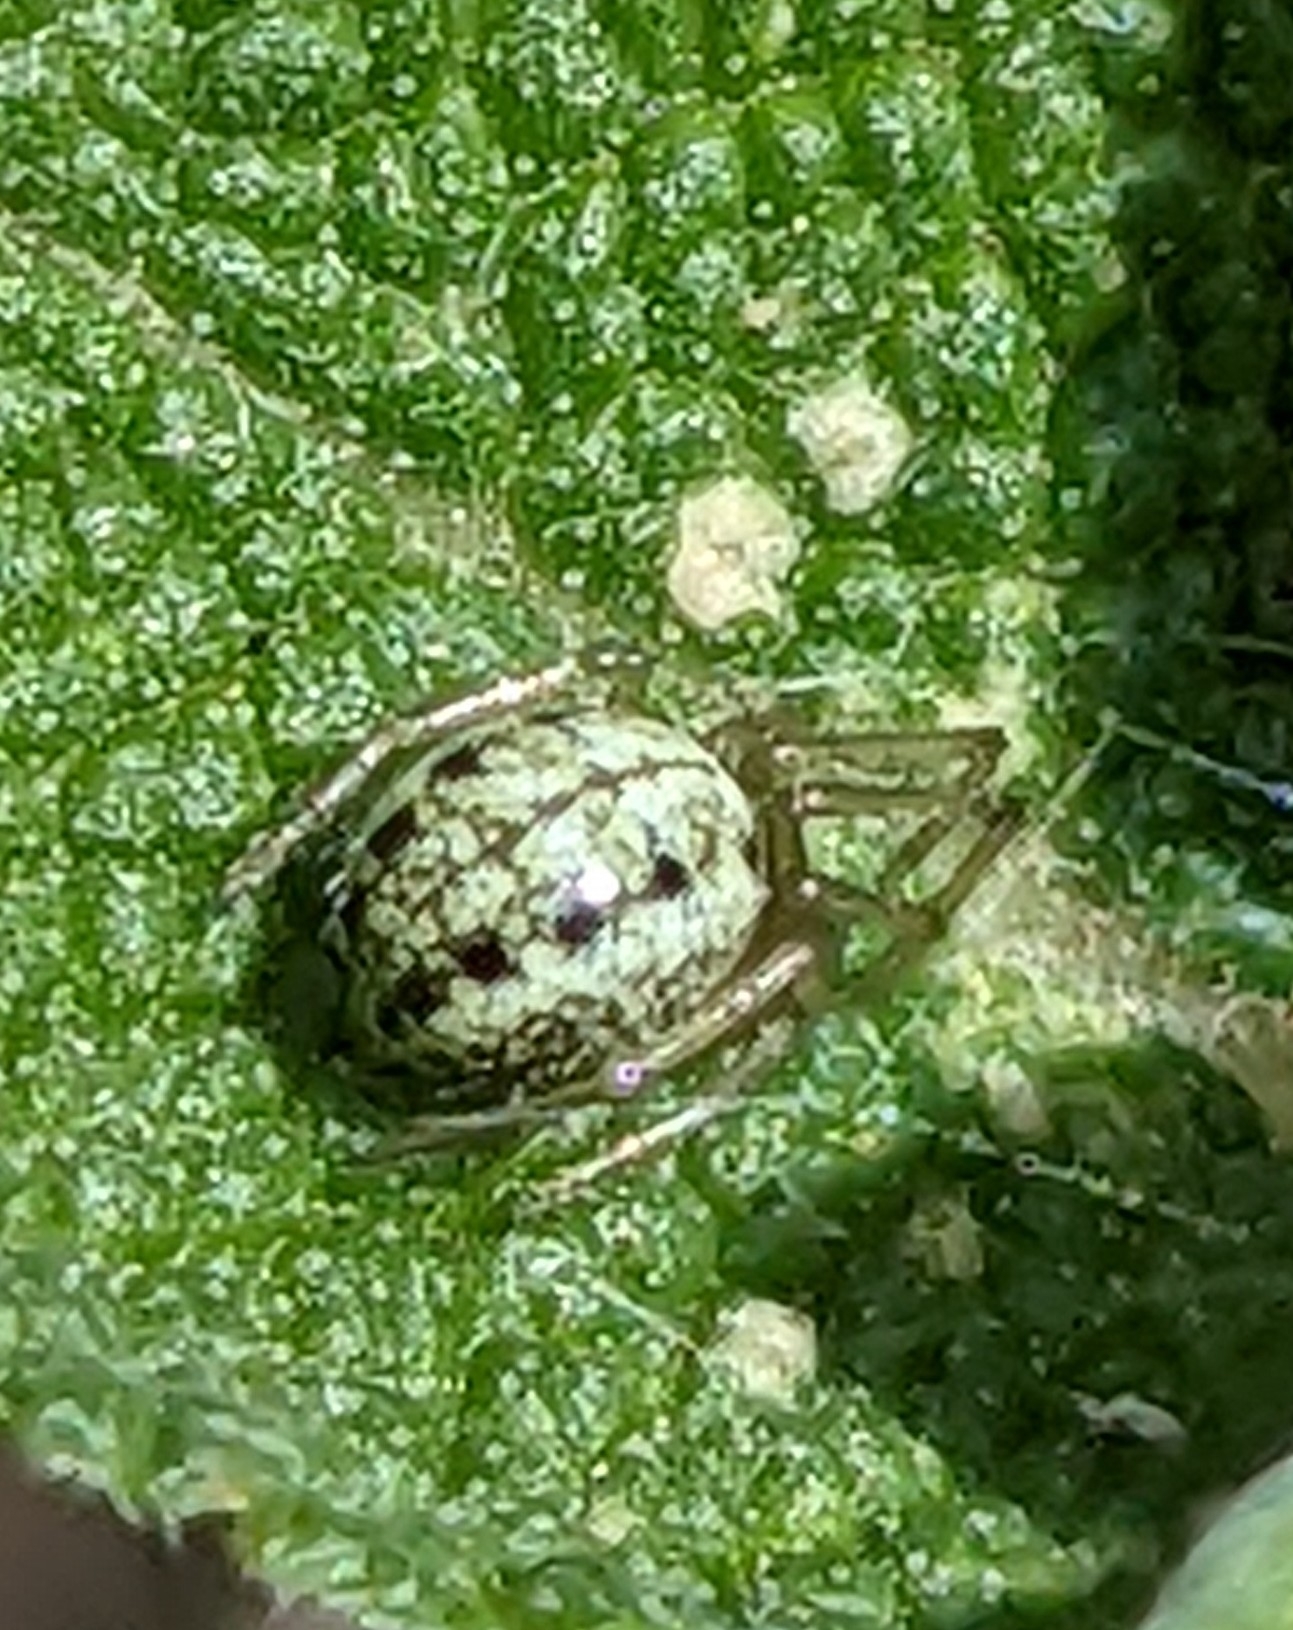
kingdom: Animalia
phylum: Arthropoda
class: Arachnida
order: Araneae
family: Theridiidae
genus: Enoplognatha
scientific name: Enoplognatha ovata
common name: Common candy-striped spider
